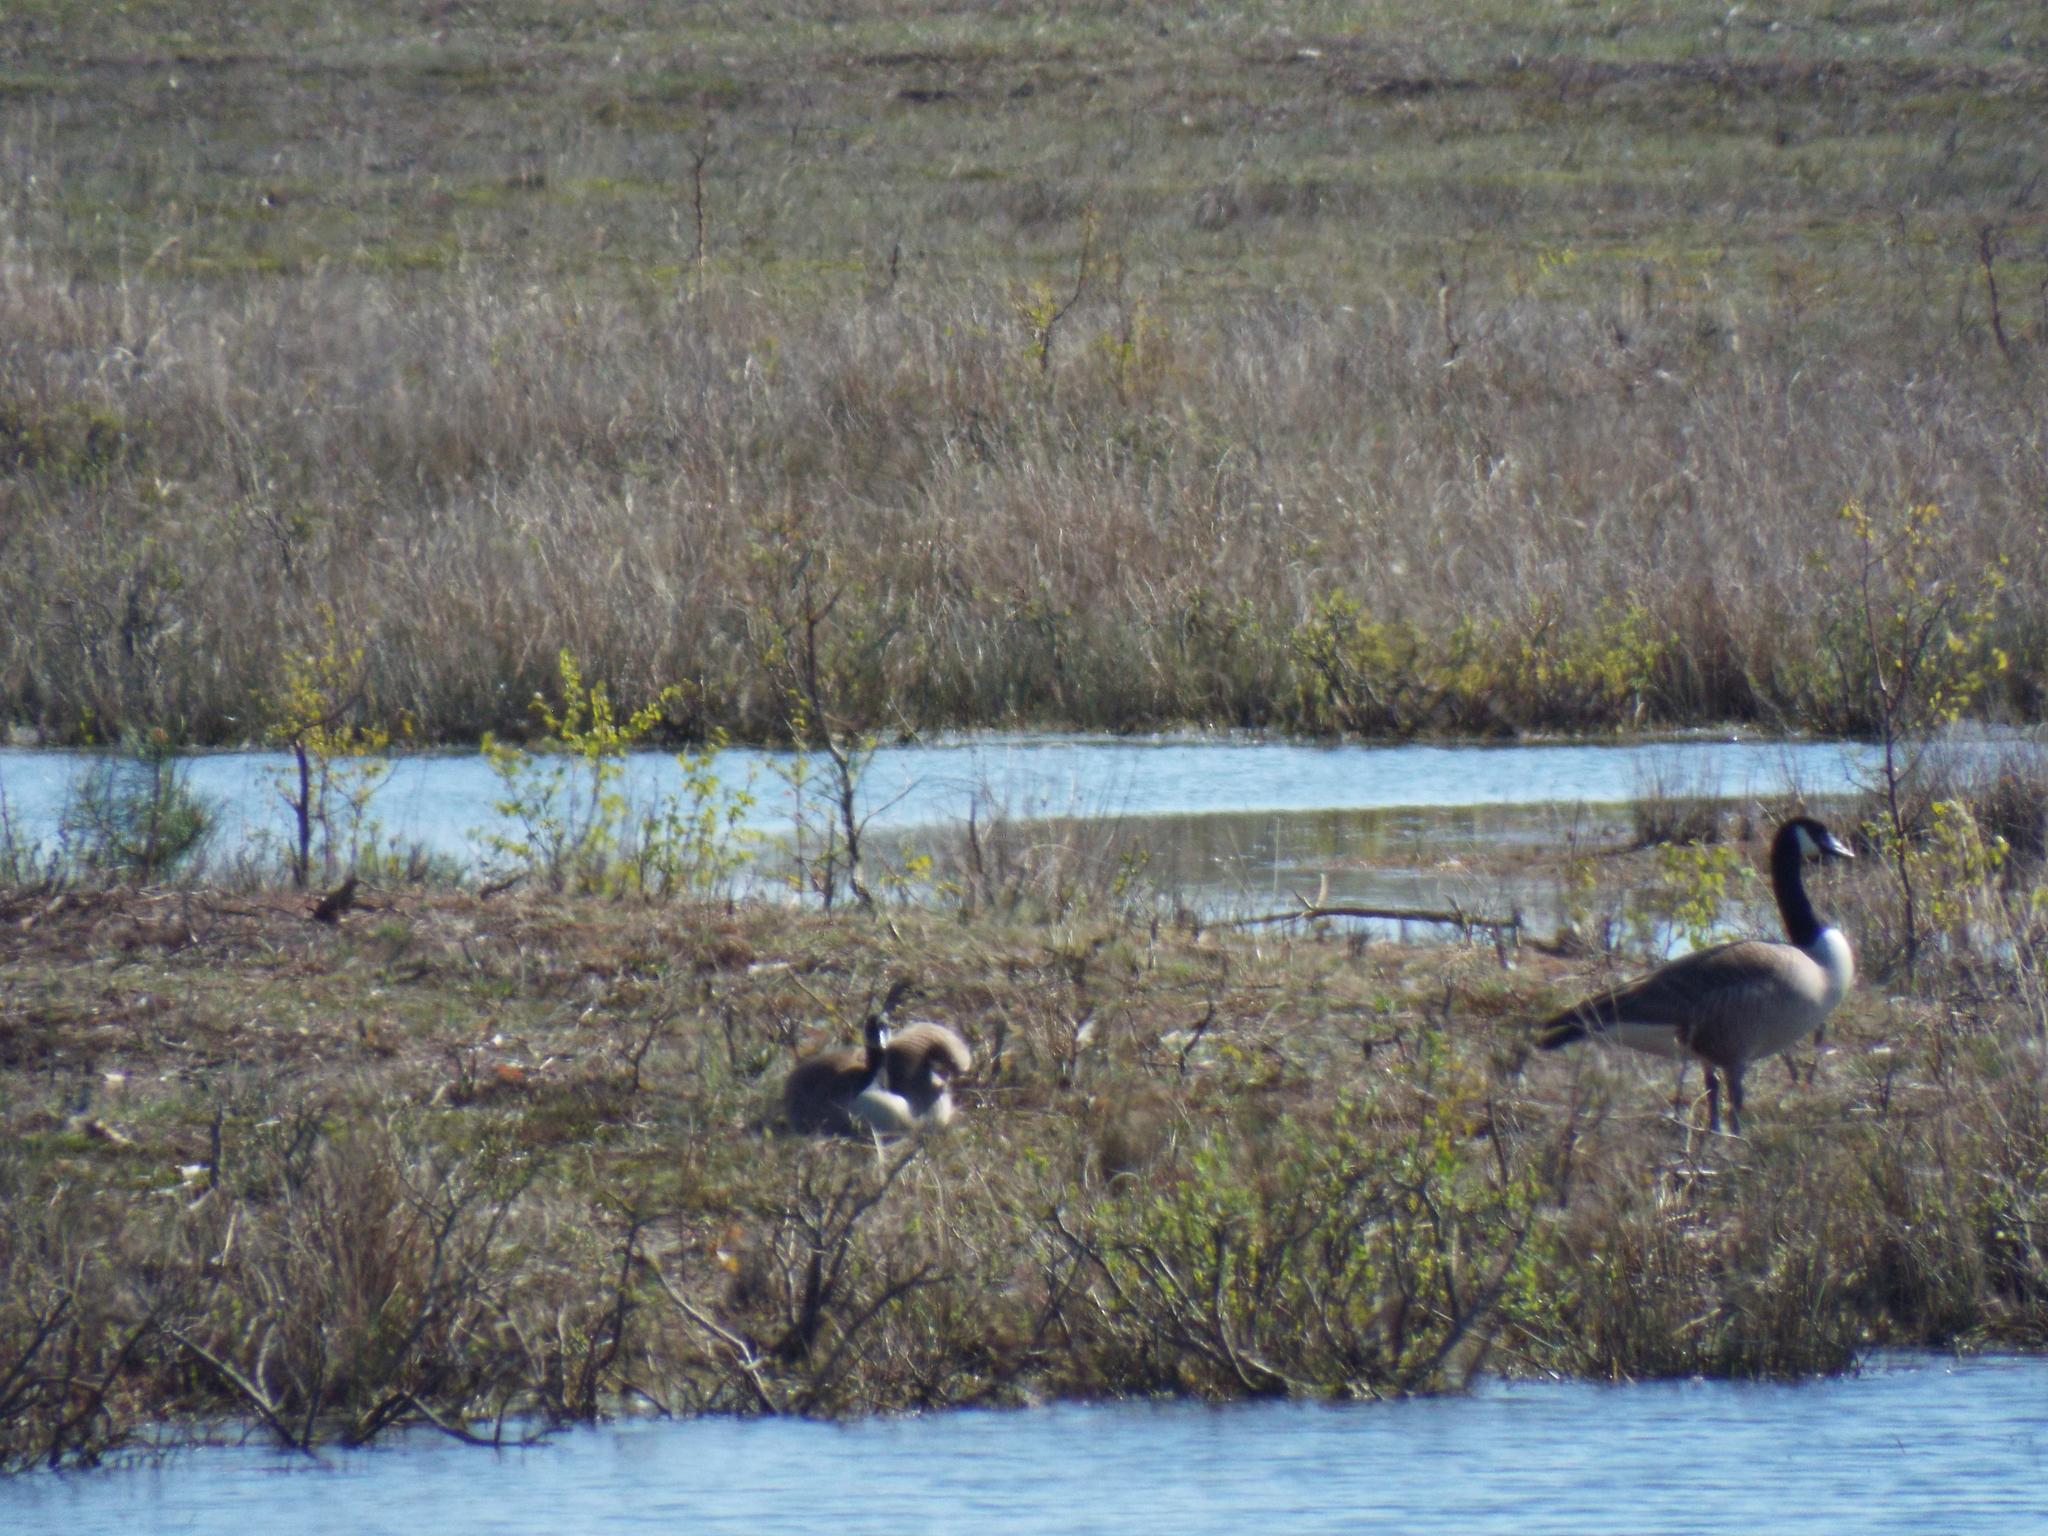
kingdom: Animalia
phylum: Chordata
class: Aves
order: Anseriformes
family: Anatidae
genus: Branta
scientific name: Branta canadensis
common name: Canada goose
